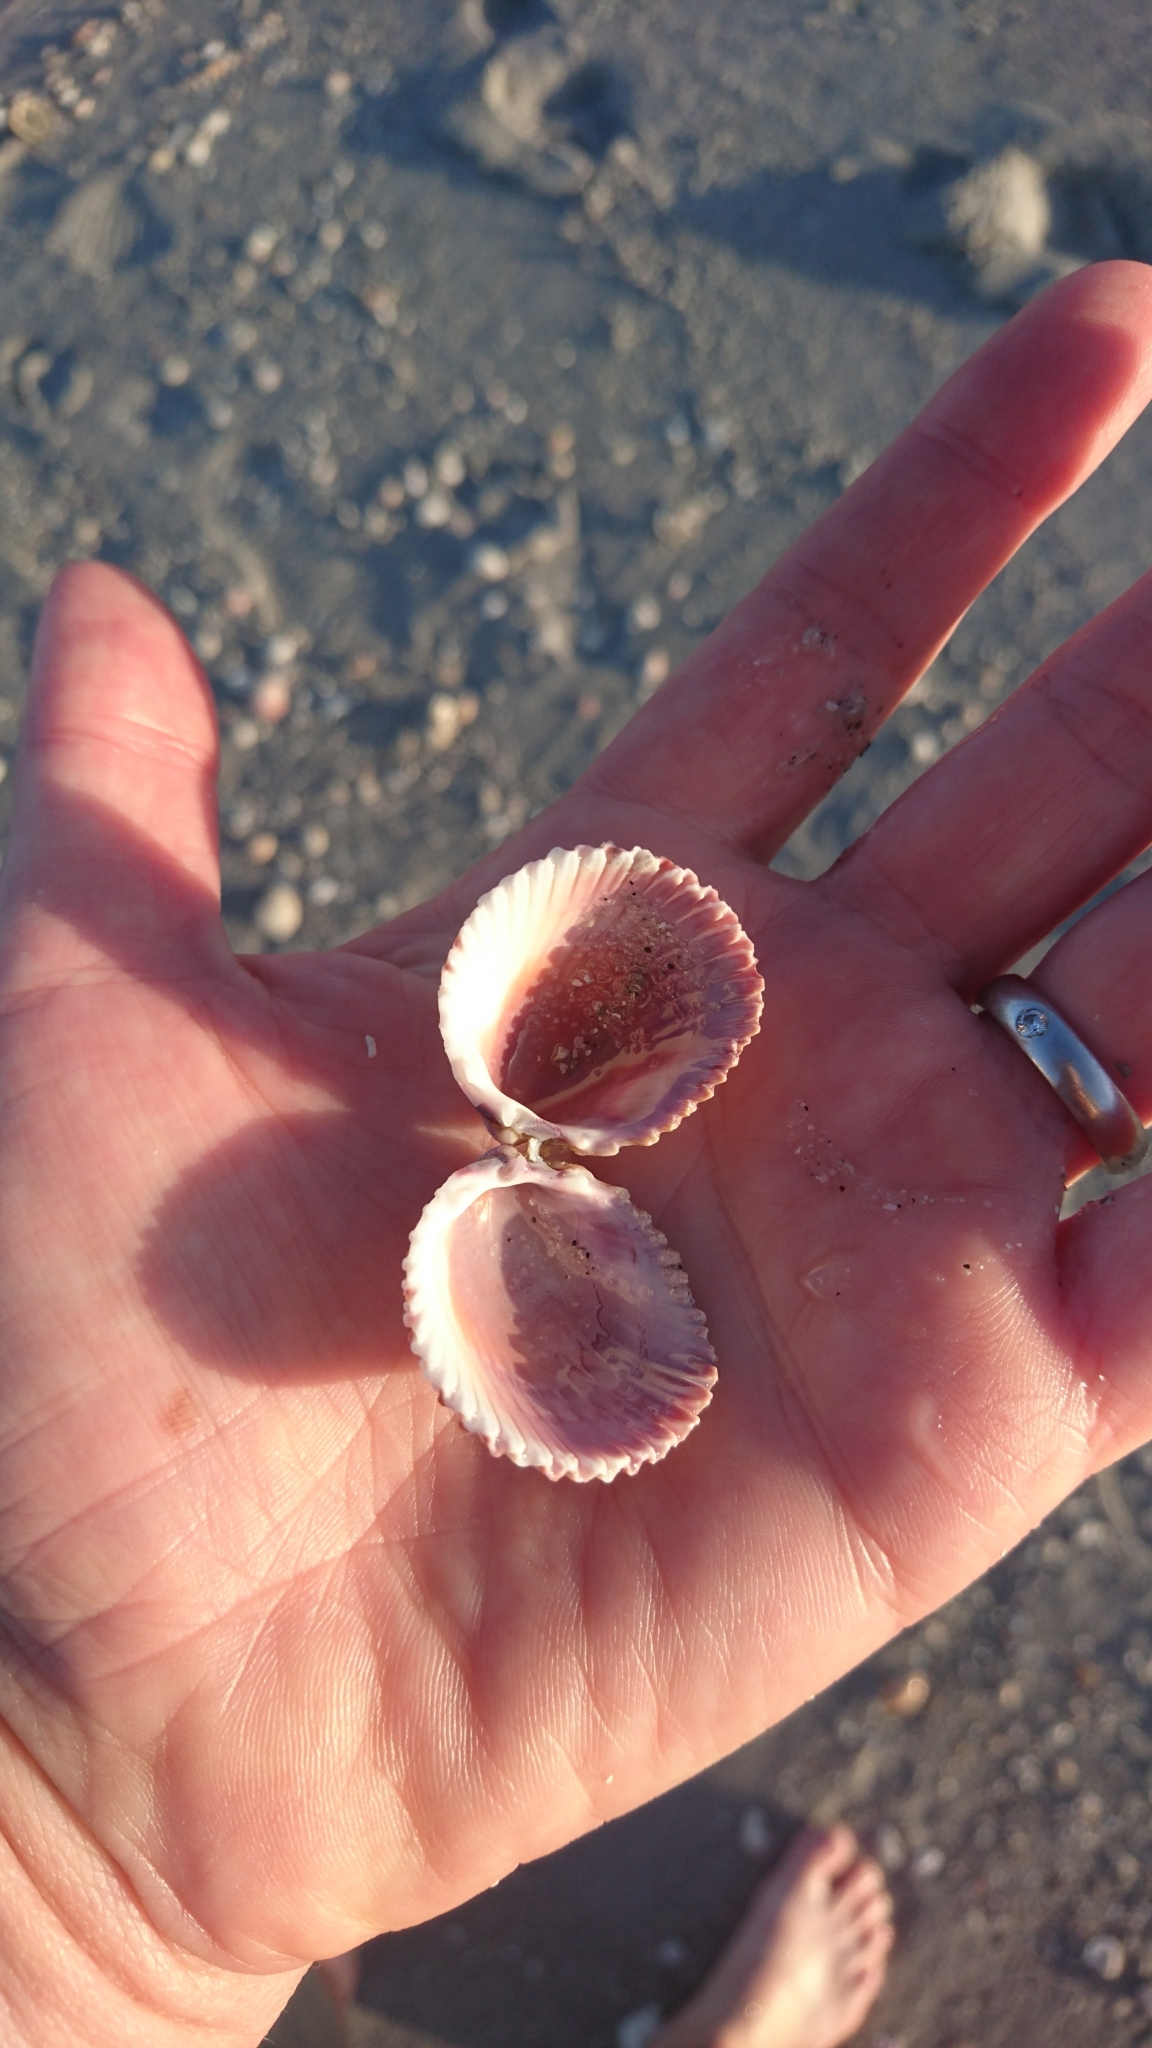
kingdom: Animalia
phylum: Mollusca
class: Bivalvia
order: Cardiida
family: Cardiidae
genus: Trachycardium
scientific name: Trachycardium egmontianum
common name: Florida pricklycockle
